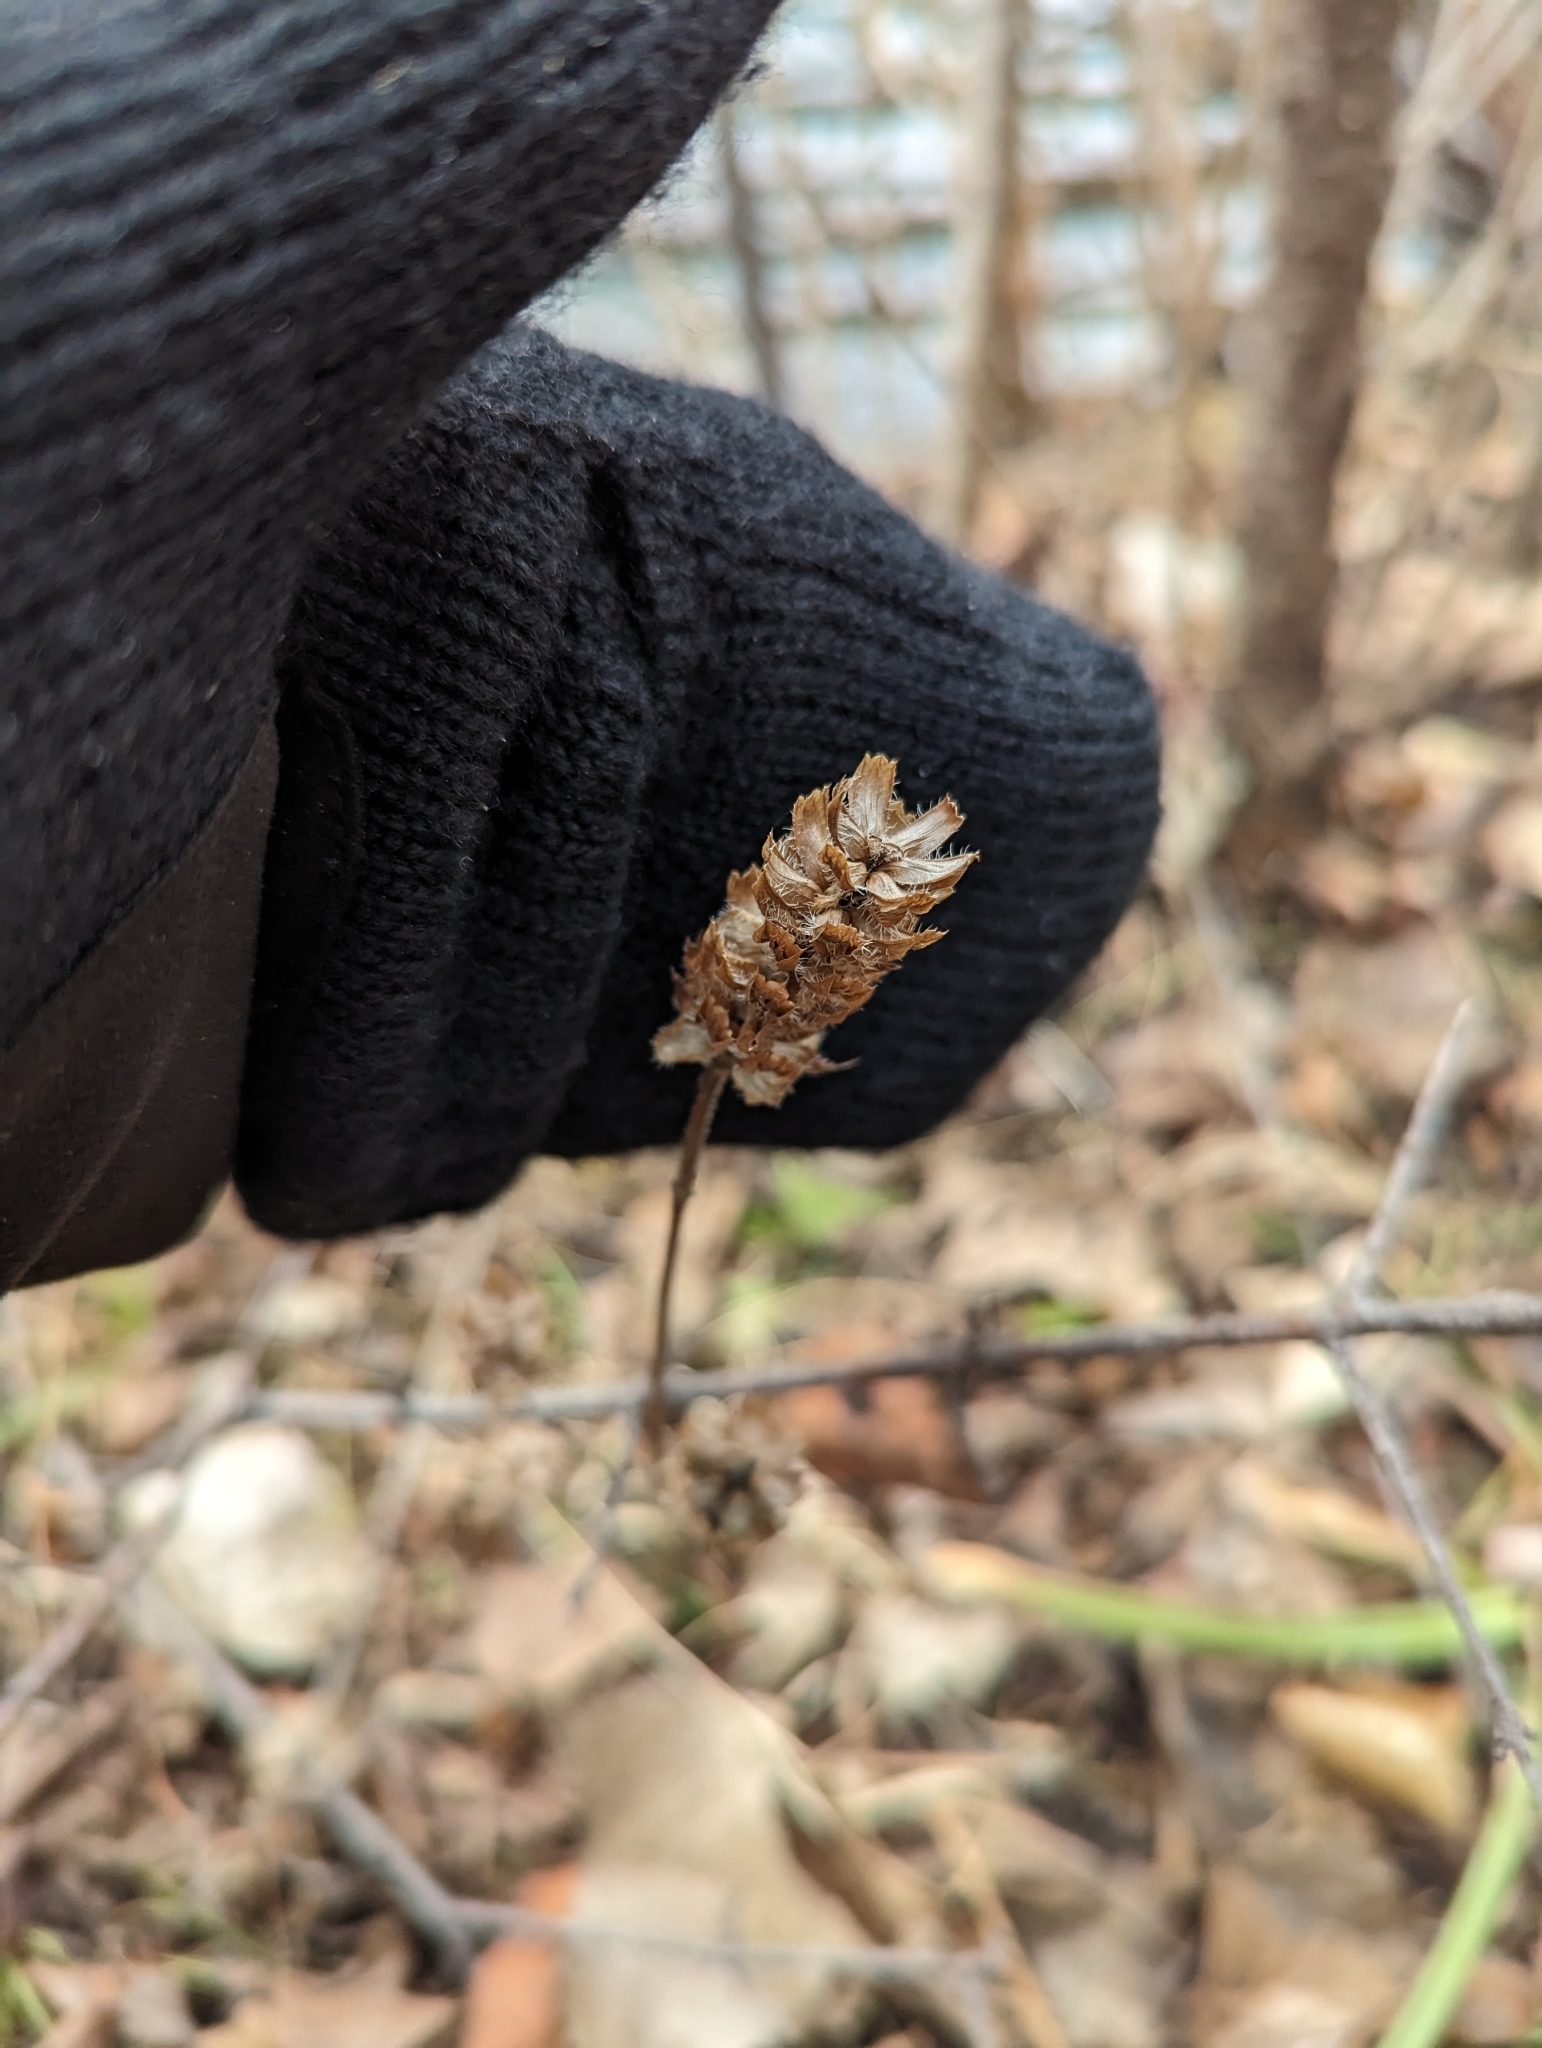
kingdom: Plantae
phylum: Tracheophyta
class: Magnoliopsida
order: Lamiales
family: Lamiaceae
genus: Prunella
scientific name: Prunella vulgaris
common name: Heal-all
